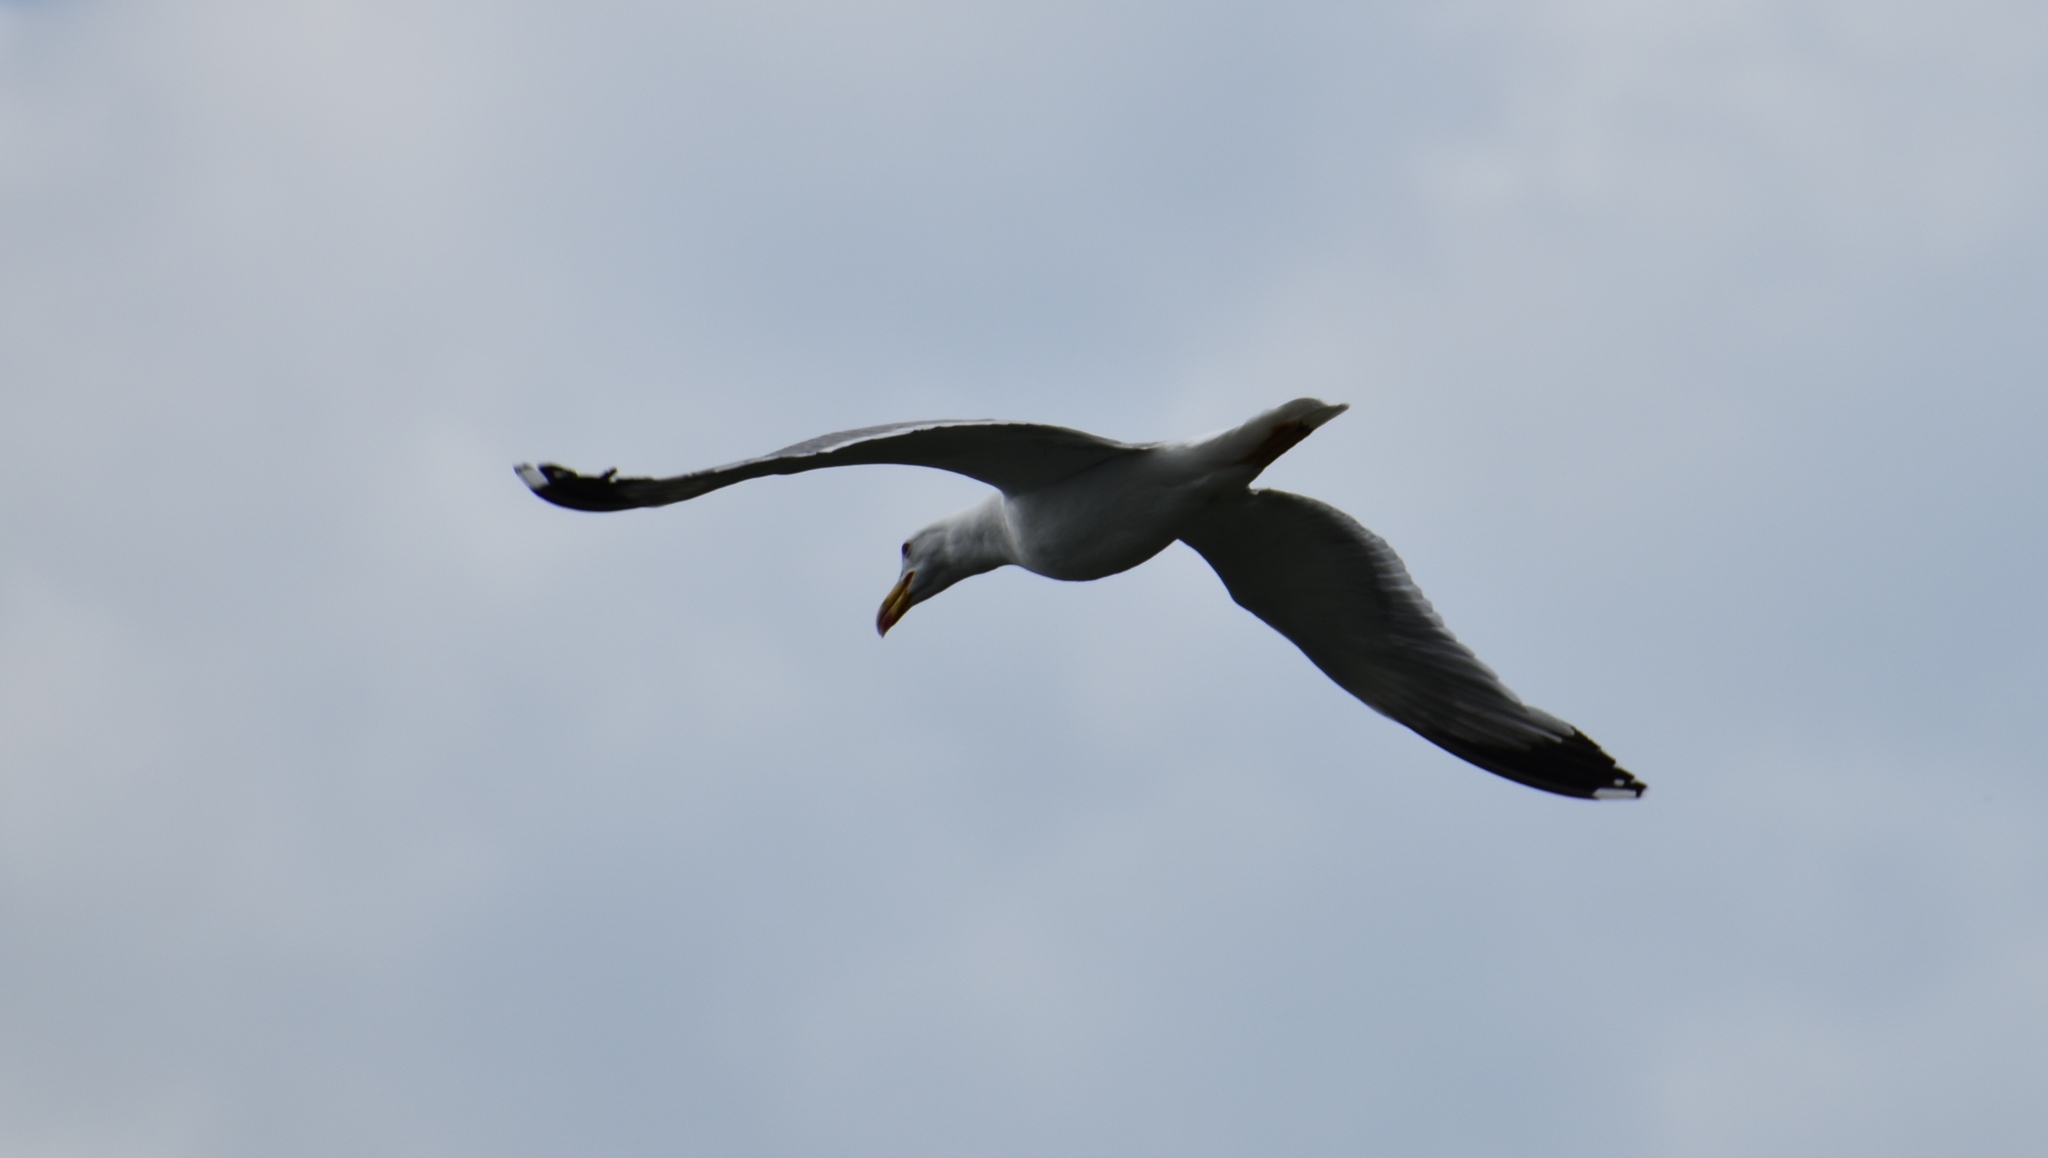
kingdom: Animalia
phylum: Chordata
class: Aves
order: Charadriiformes
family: Laridae
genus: Larus
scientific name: Larus michahellis
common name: Yellow-legged gull
